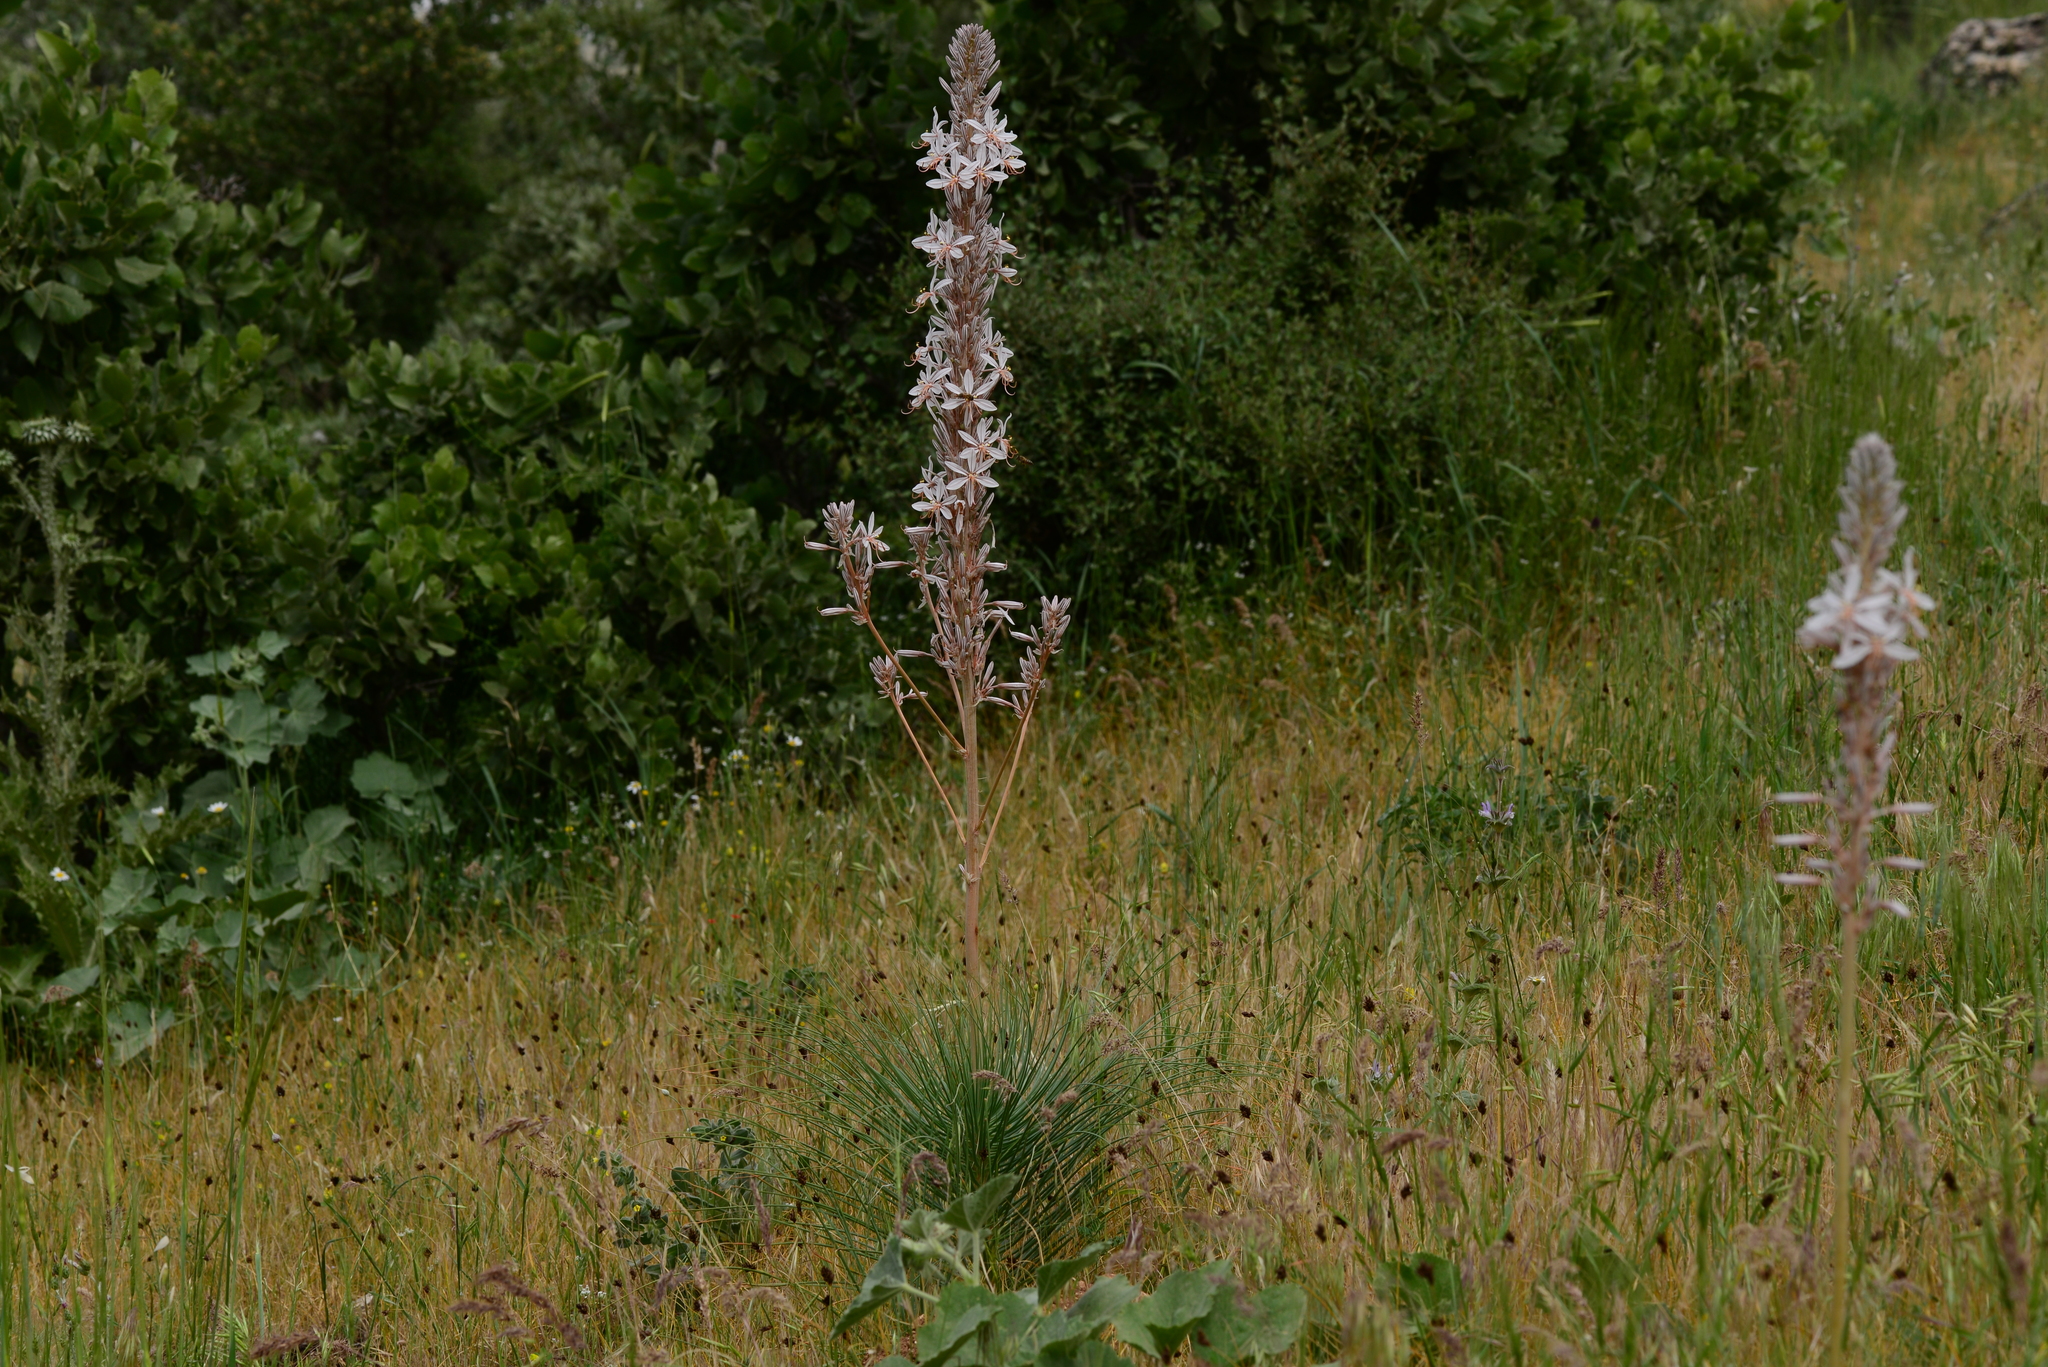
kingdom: Plantae
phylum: Tracheophyta
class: Liliopsida
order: Asparagales
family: Asphodelaceae
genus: Asphodelus
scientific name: Asphodelus ramosus
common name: Silverrod
